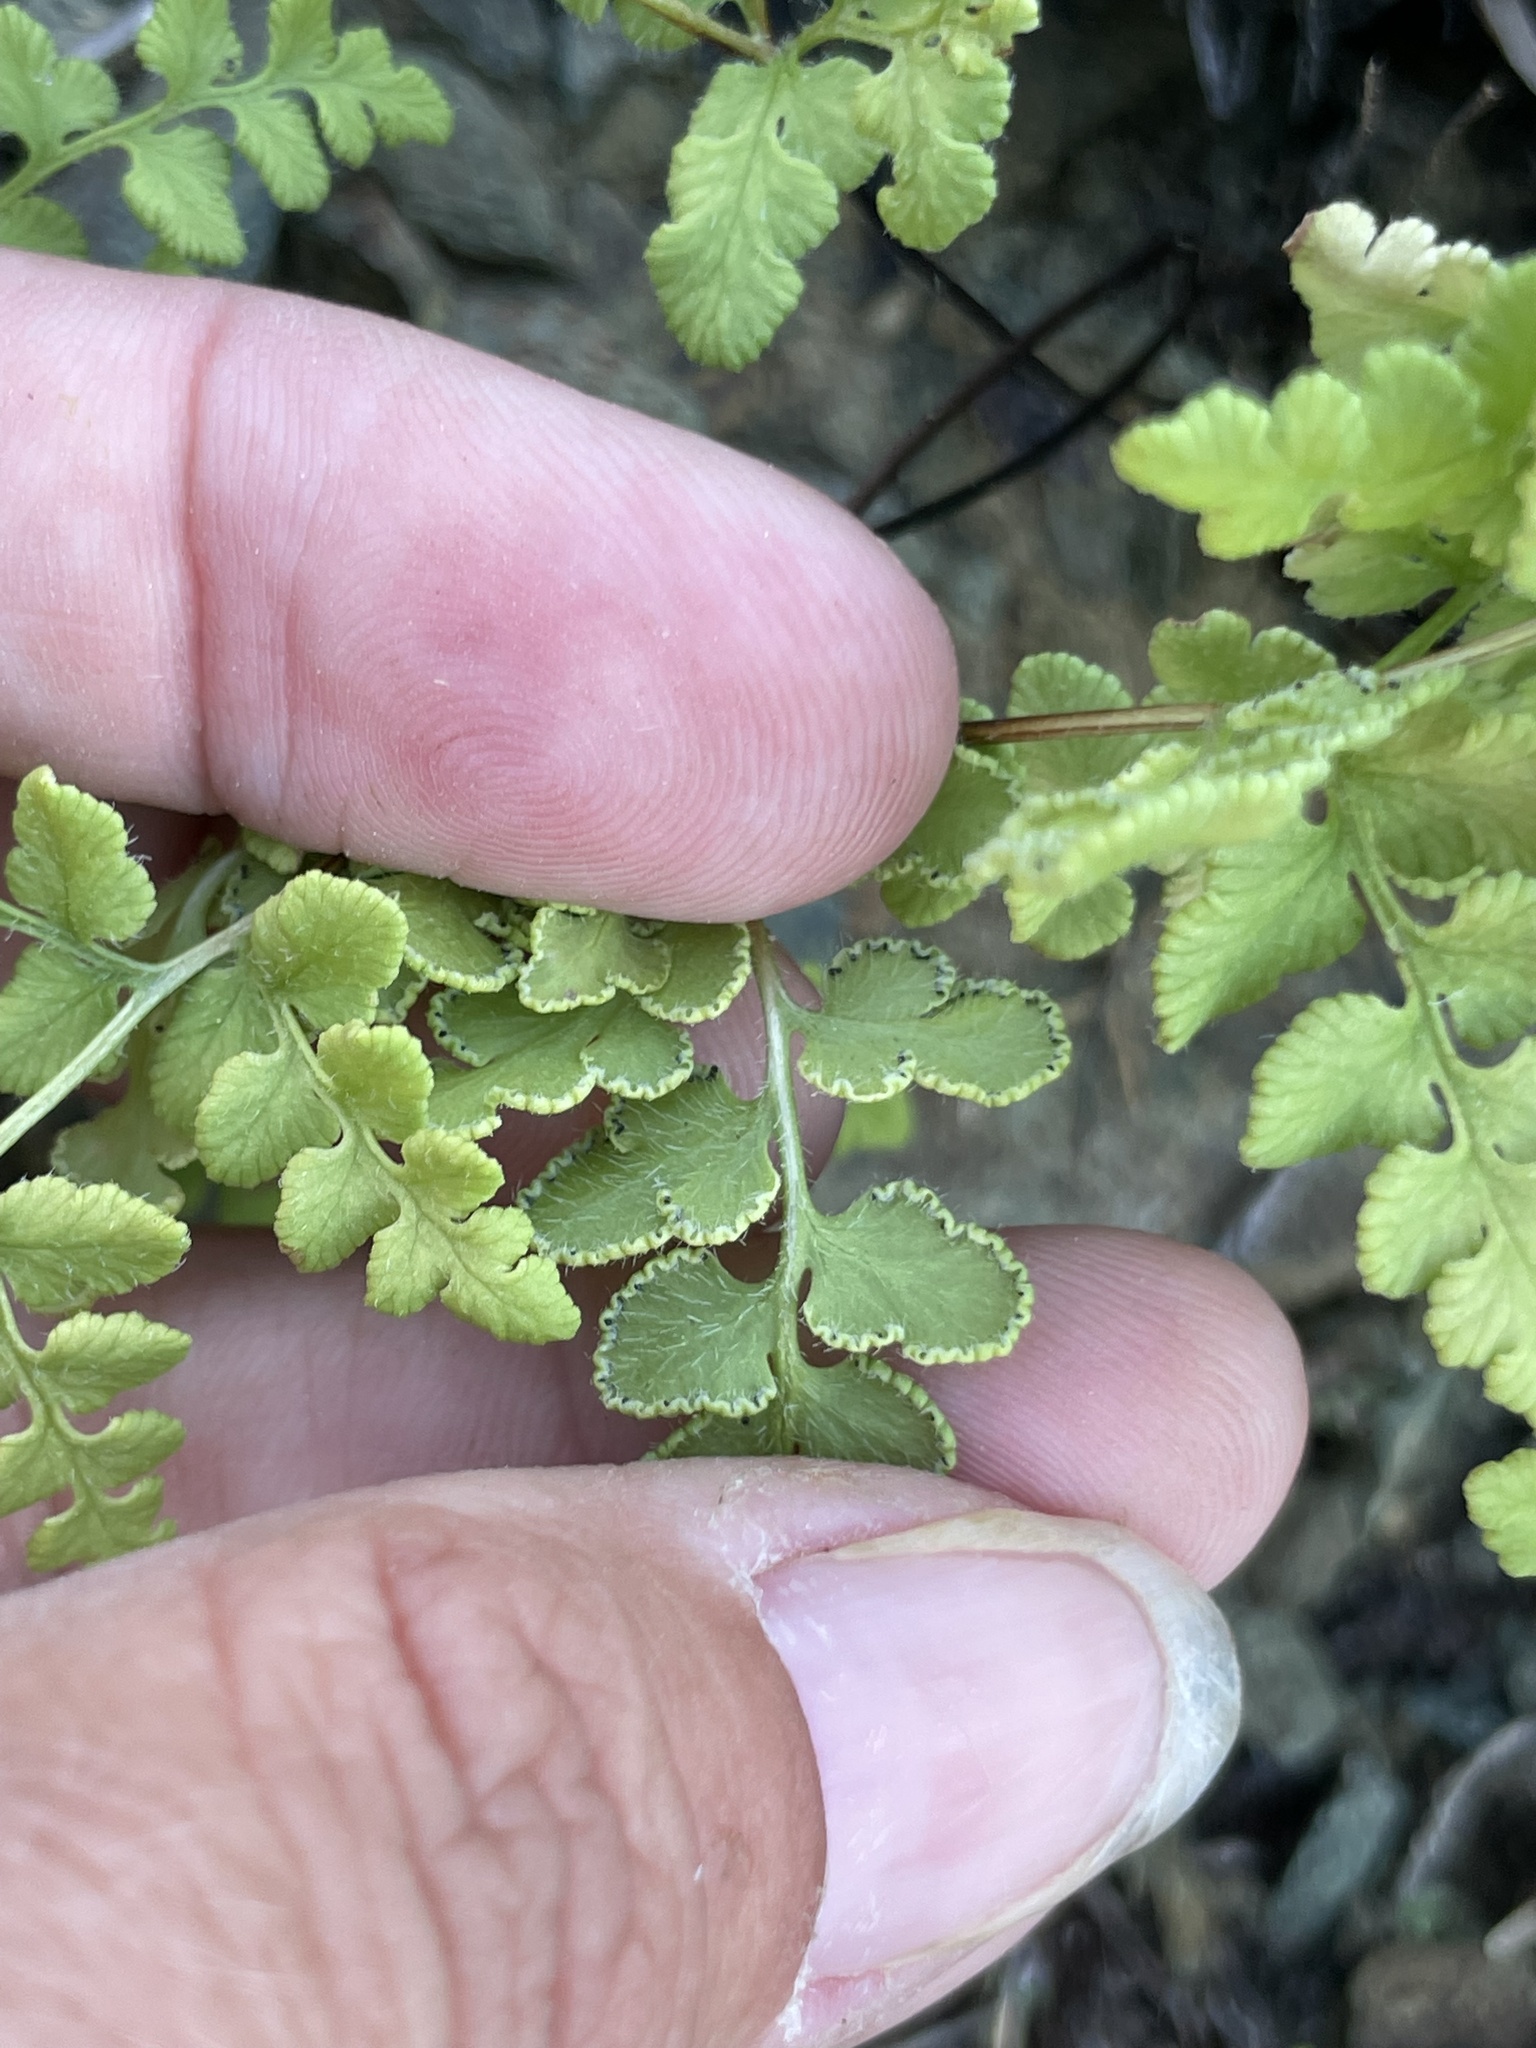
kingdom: Plantae
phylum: Tracheophyta
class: Polypodiopsida
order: Polypodiales
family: Pteridaceae
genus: Baja
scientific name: Baja brandegeei
